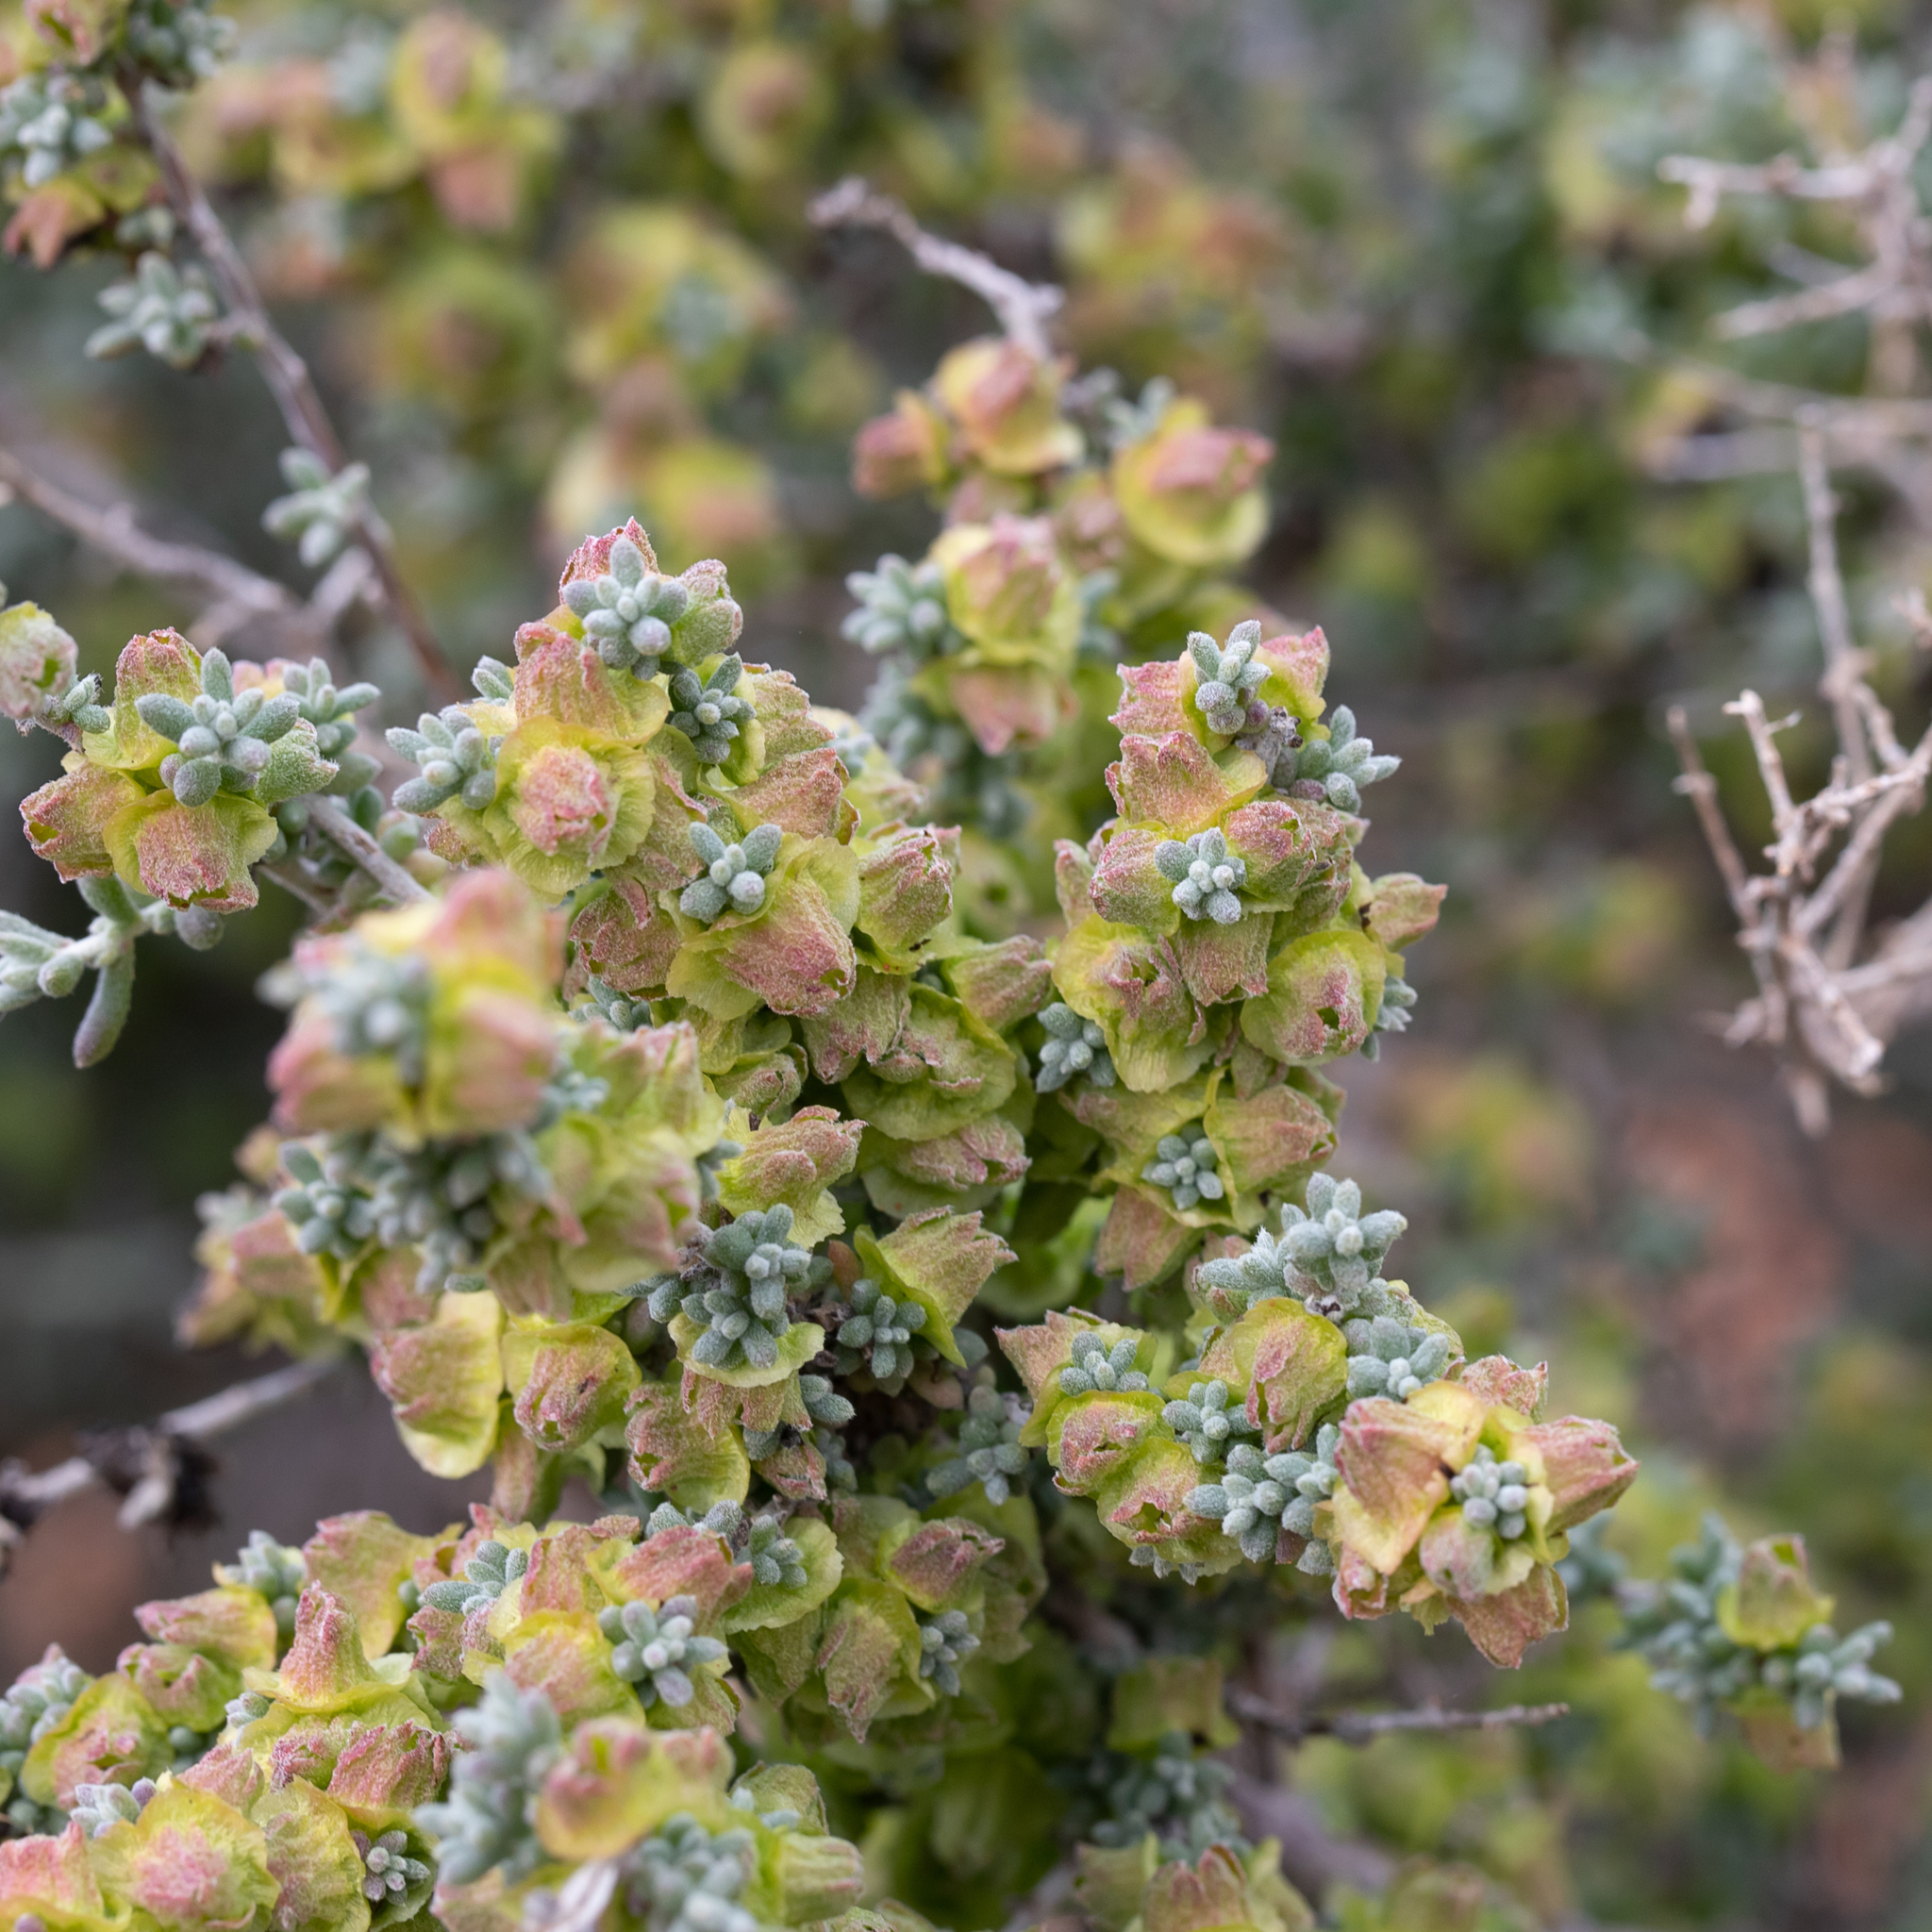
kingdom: Plantae
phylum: Tracheophyta
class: Magnoliopsida
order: Caryophyllales
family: Amaranthaceae
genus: Maireana
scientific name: Maireana pyramidata
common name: Sagobush
